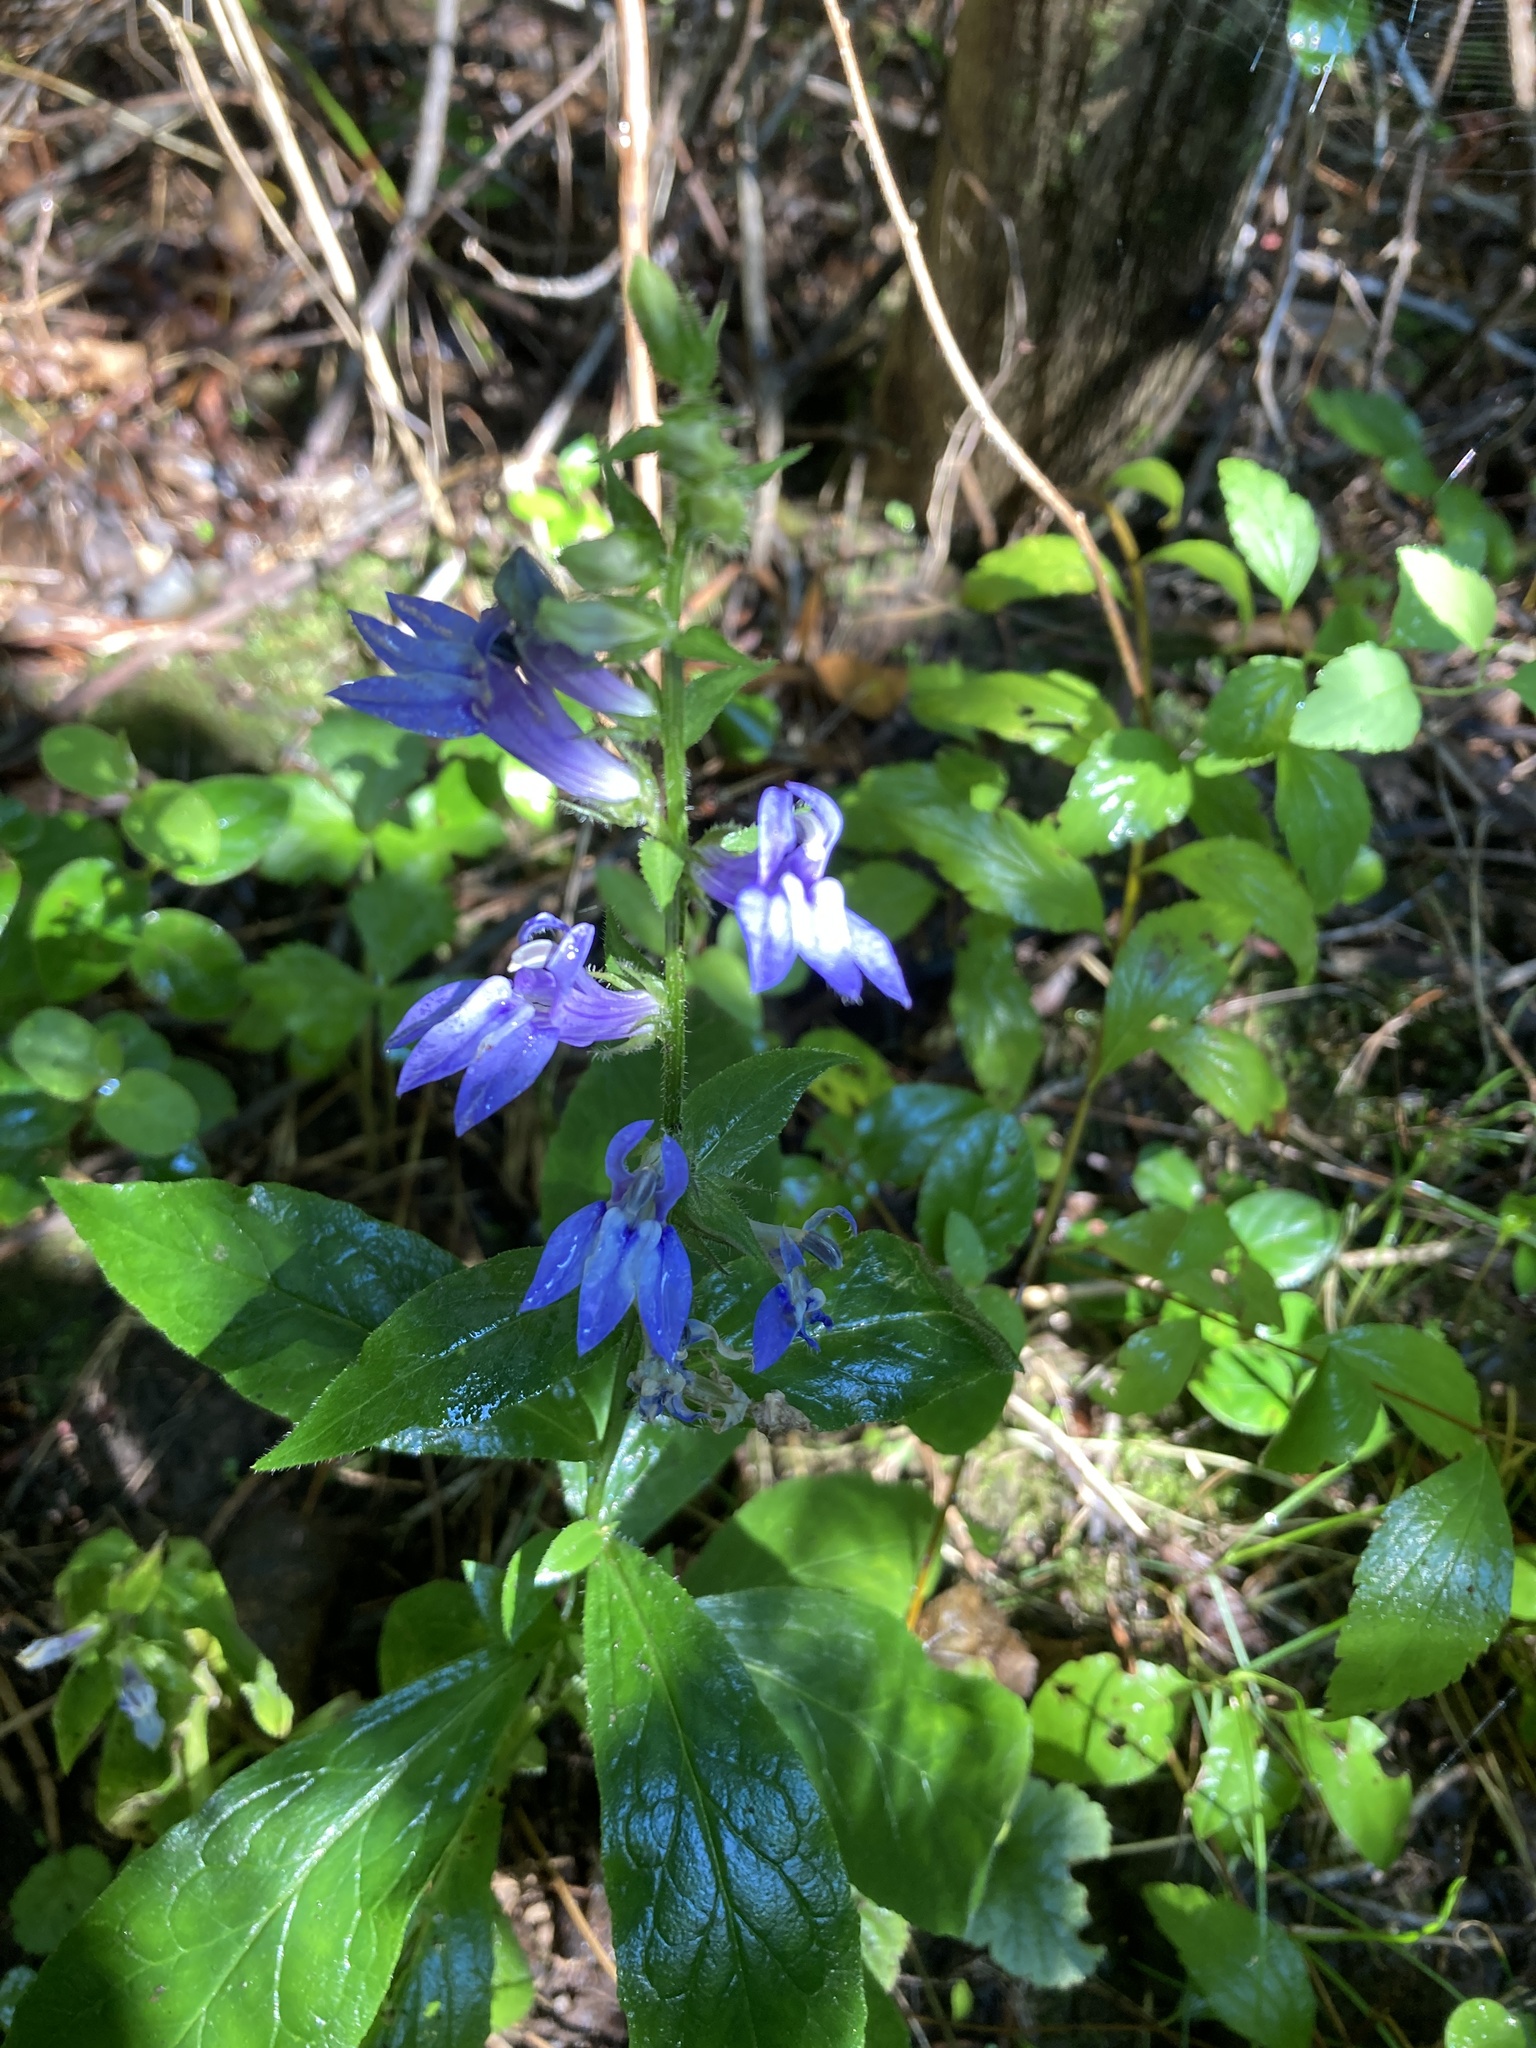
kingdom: Plantae
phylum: Tracheophyta
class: Magnoliopsida
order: Asterales
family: Campanulaceae
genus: Lobelia
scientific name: Lobelia siphilitica
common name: Great lobelia
